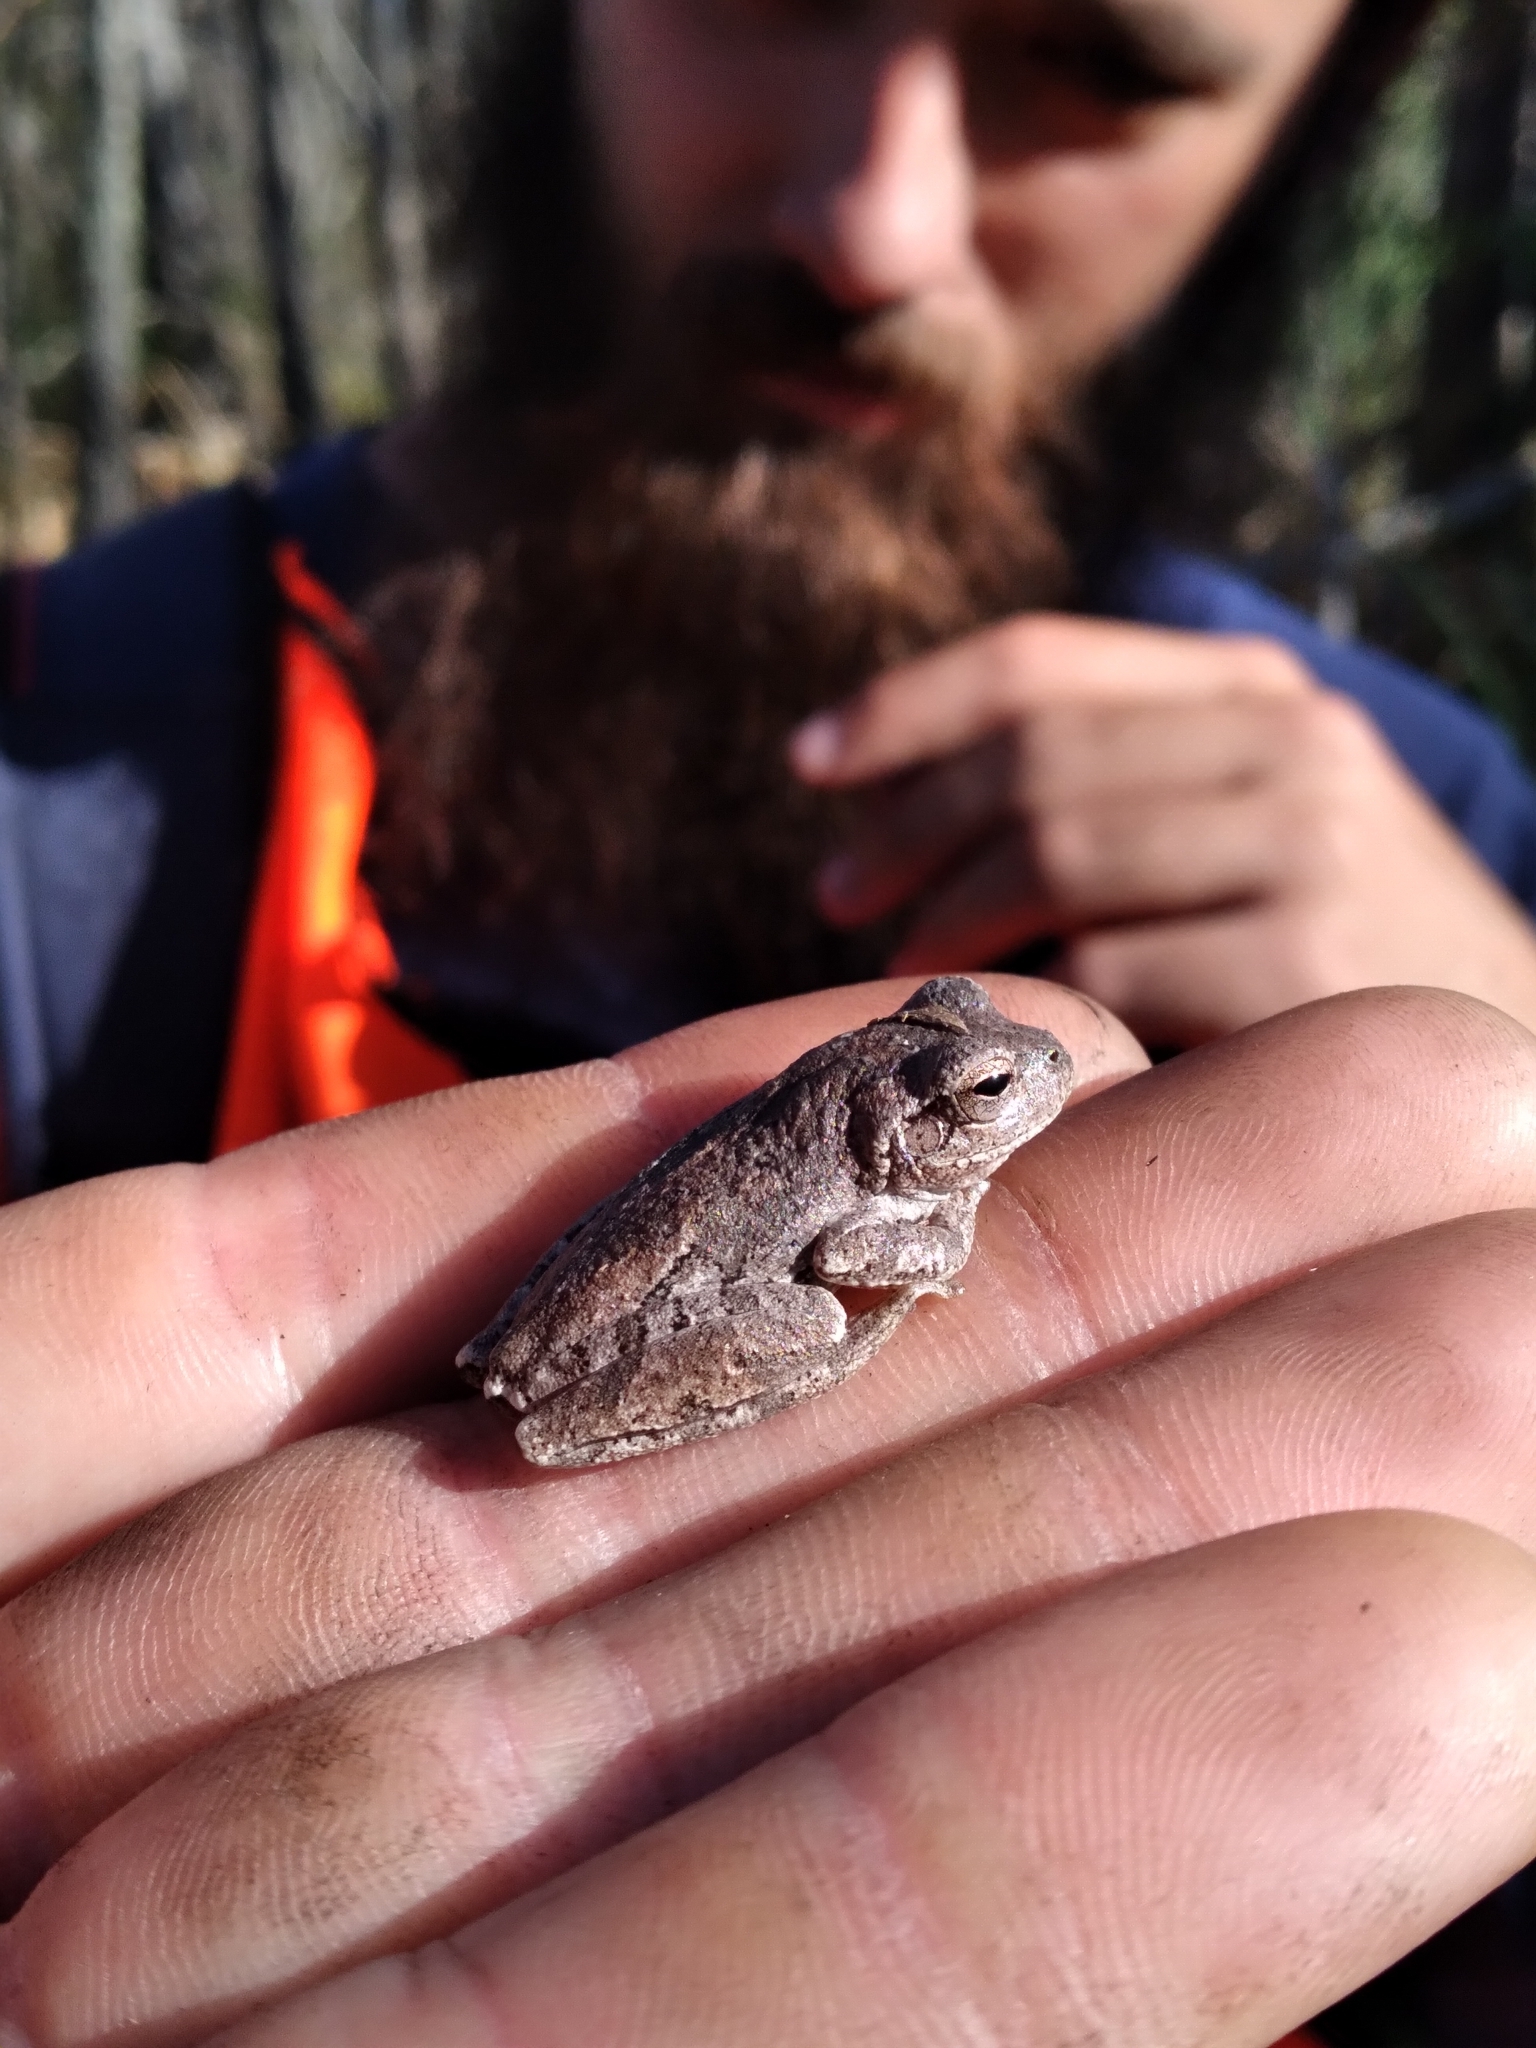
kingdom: Animalia
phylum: Chordata
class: Amphibia
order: Anura
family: Hylidae
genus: Hyla
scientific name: Hyla femoralis
